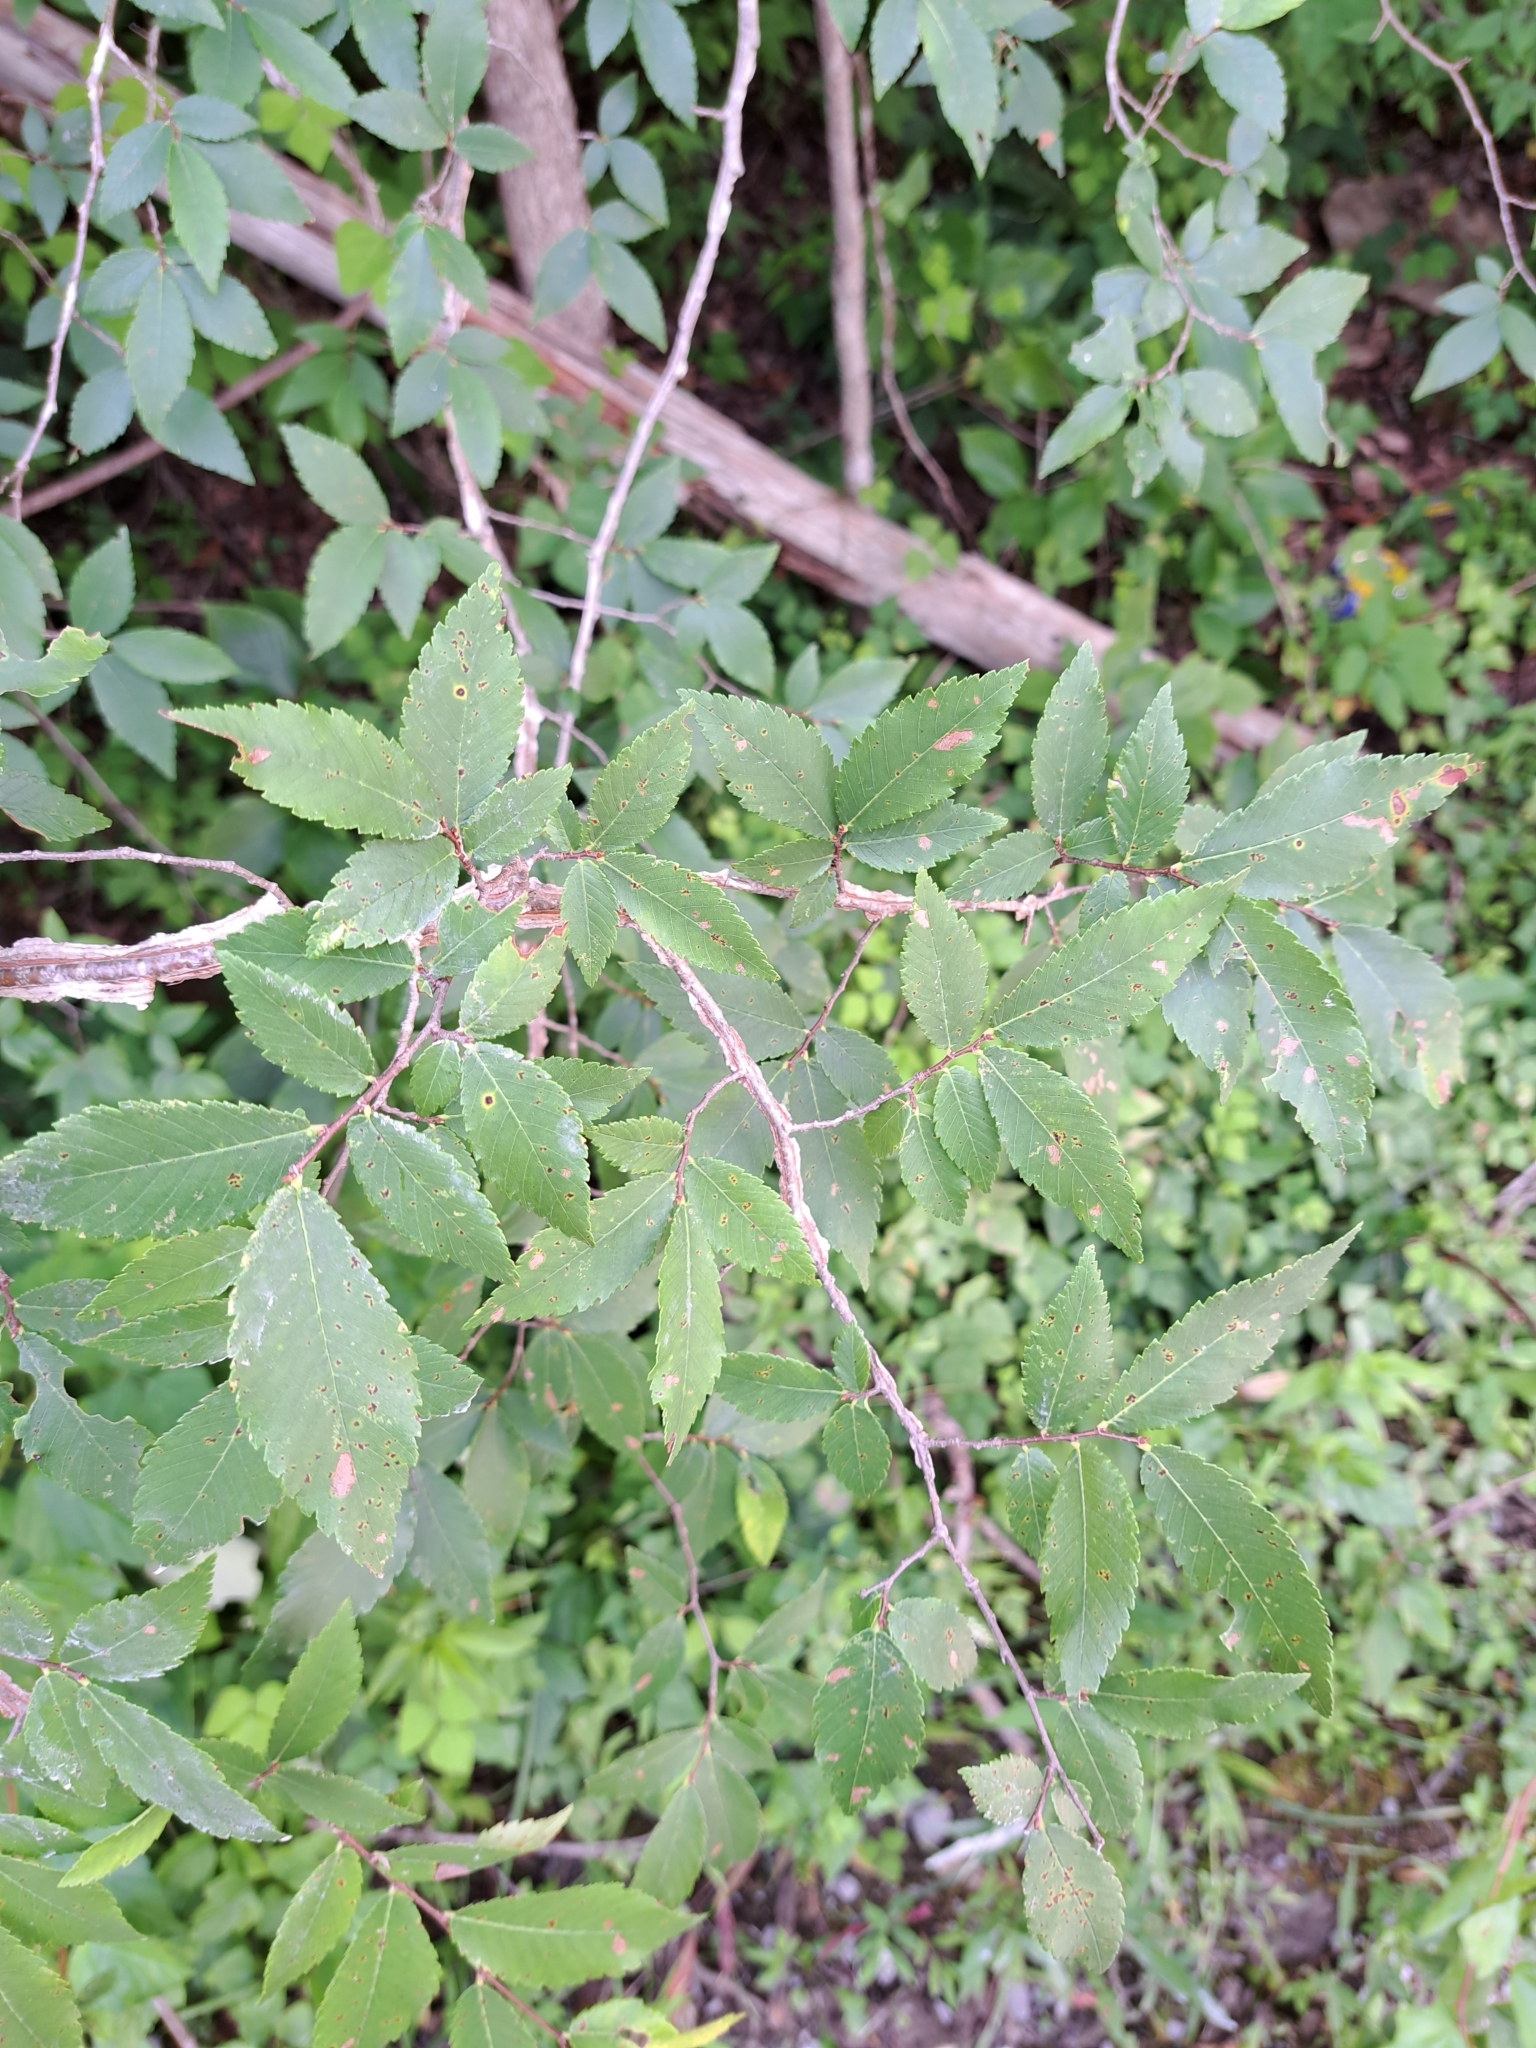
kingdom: Plantae
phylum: Tracheophyta
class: Magnoliopsida
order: Rosales
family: Ulmaceae
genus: Ulmus
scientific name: Ulmus alata
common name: Winged elm
